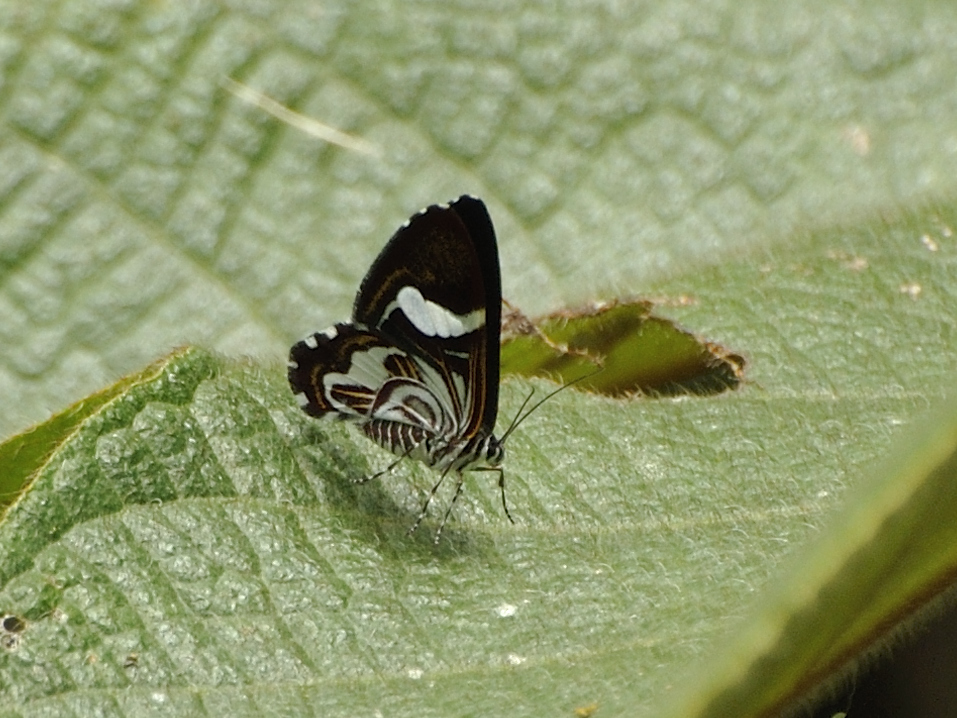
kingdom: Animalia
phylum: Arthropoda
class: Insecta
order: Lepidoptera
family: Geometridae
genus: Erateina
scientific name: Erateina margarita
